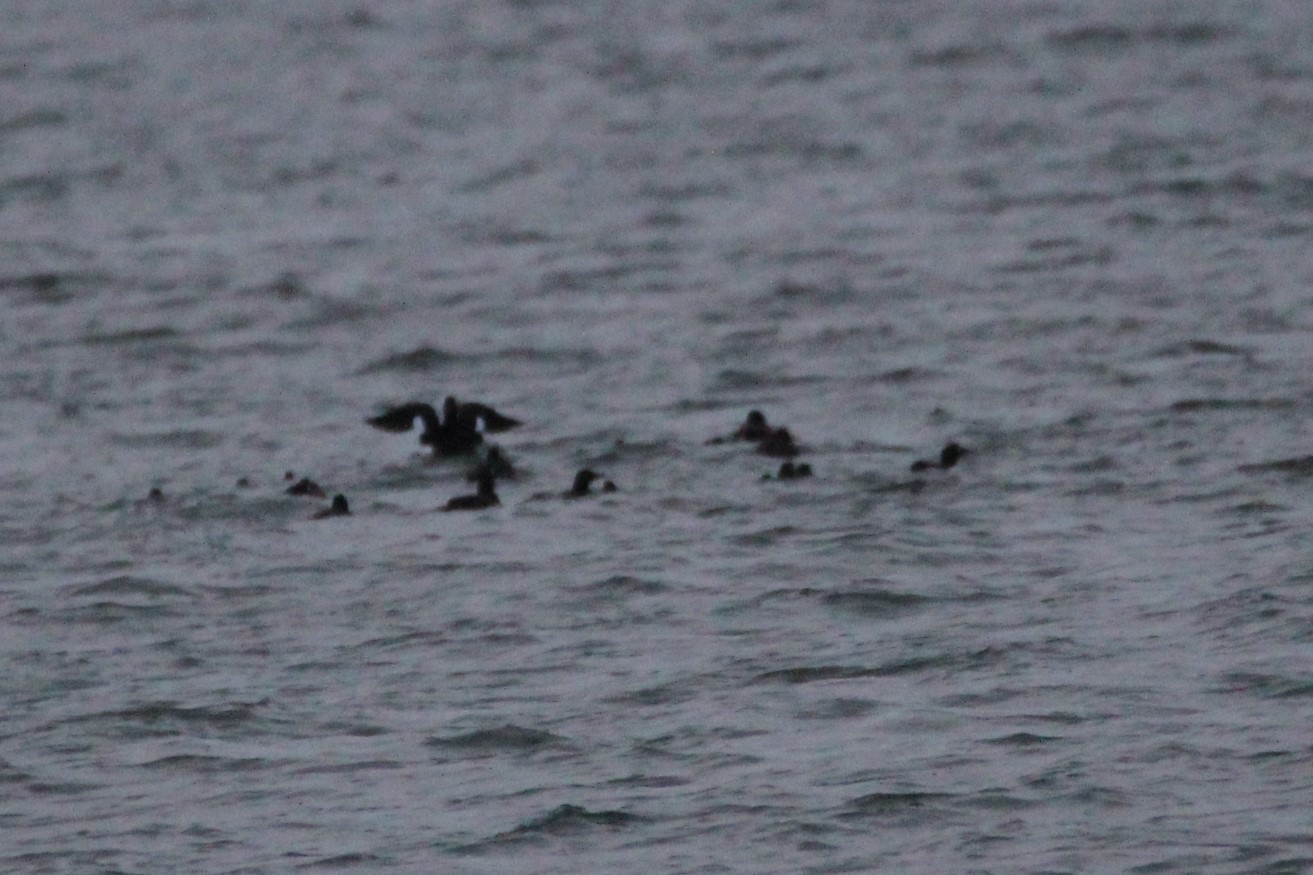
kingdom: Animalia
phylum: Chordata
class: Aves
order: Anseriformes
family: Anatidae
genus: Melanitta
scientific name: Melanitta deglandi
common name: White-winged scoter
